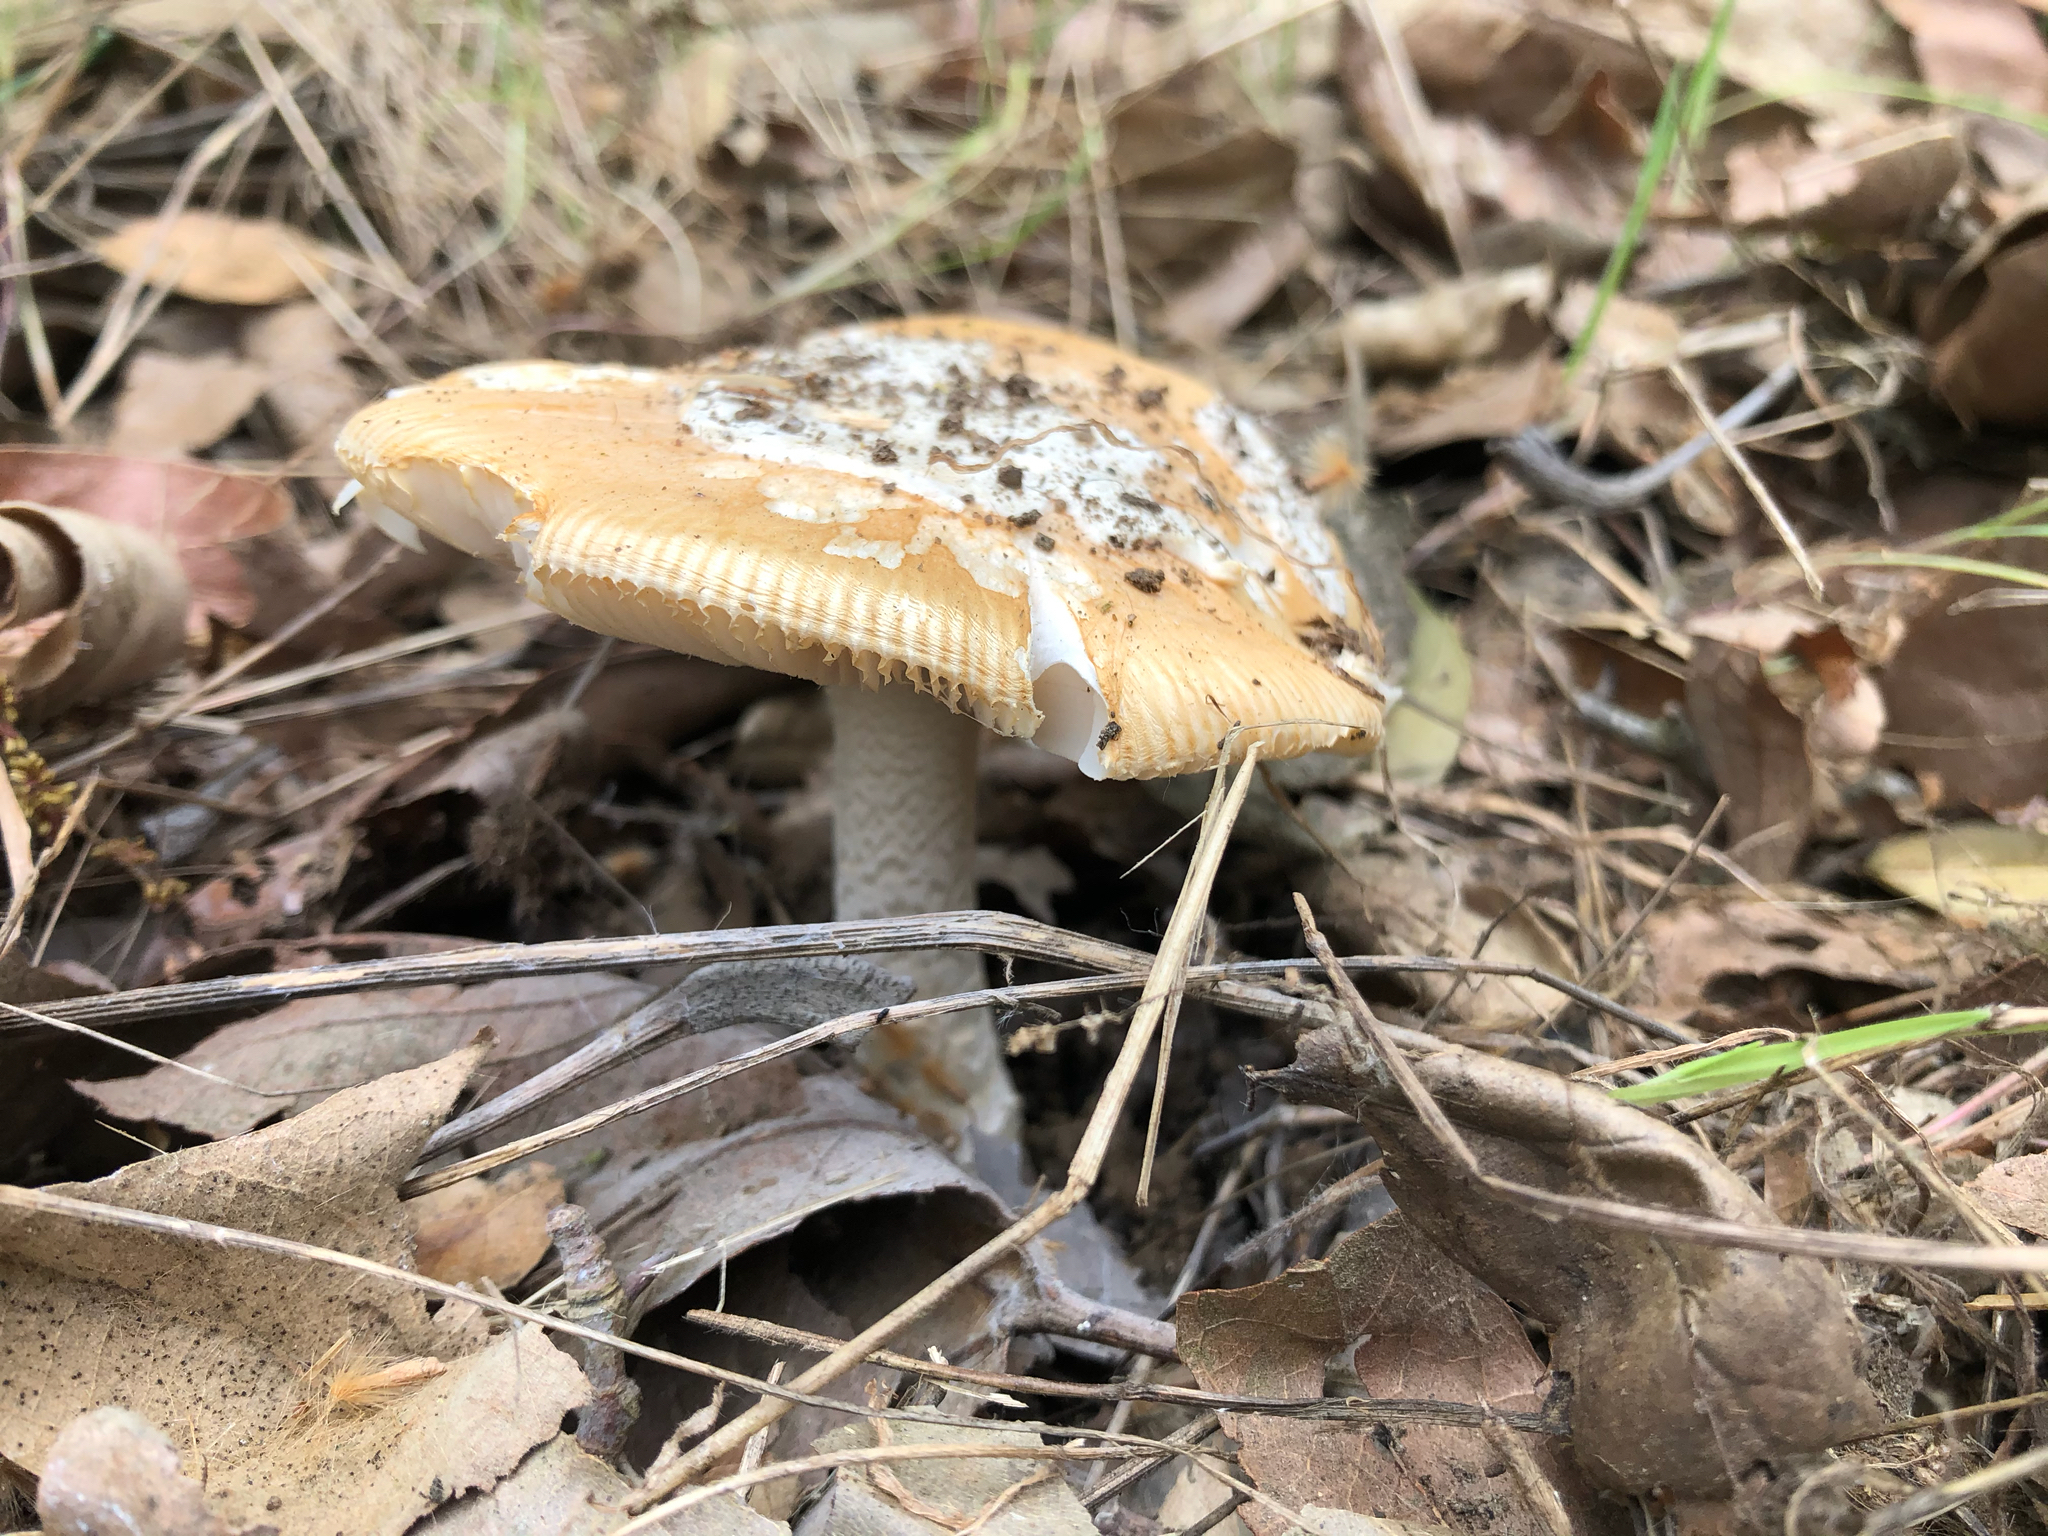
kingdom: Fungi
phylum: Basidiomycota
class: Agaricomycetes
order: Agaricales
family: Amanitaceae
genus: Amanita
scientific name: Amanita velosa
